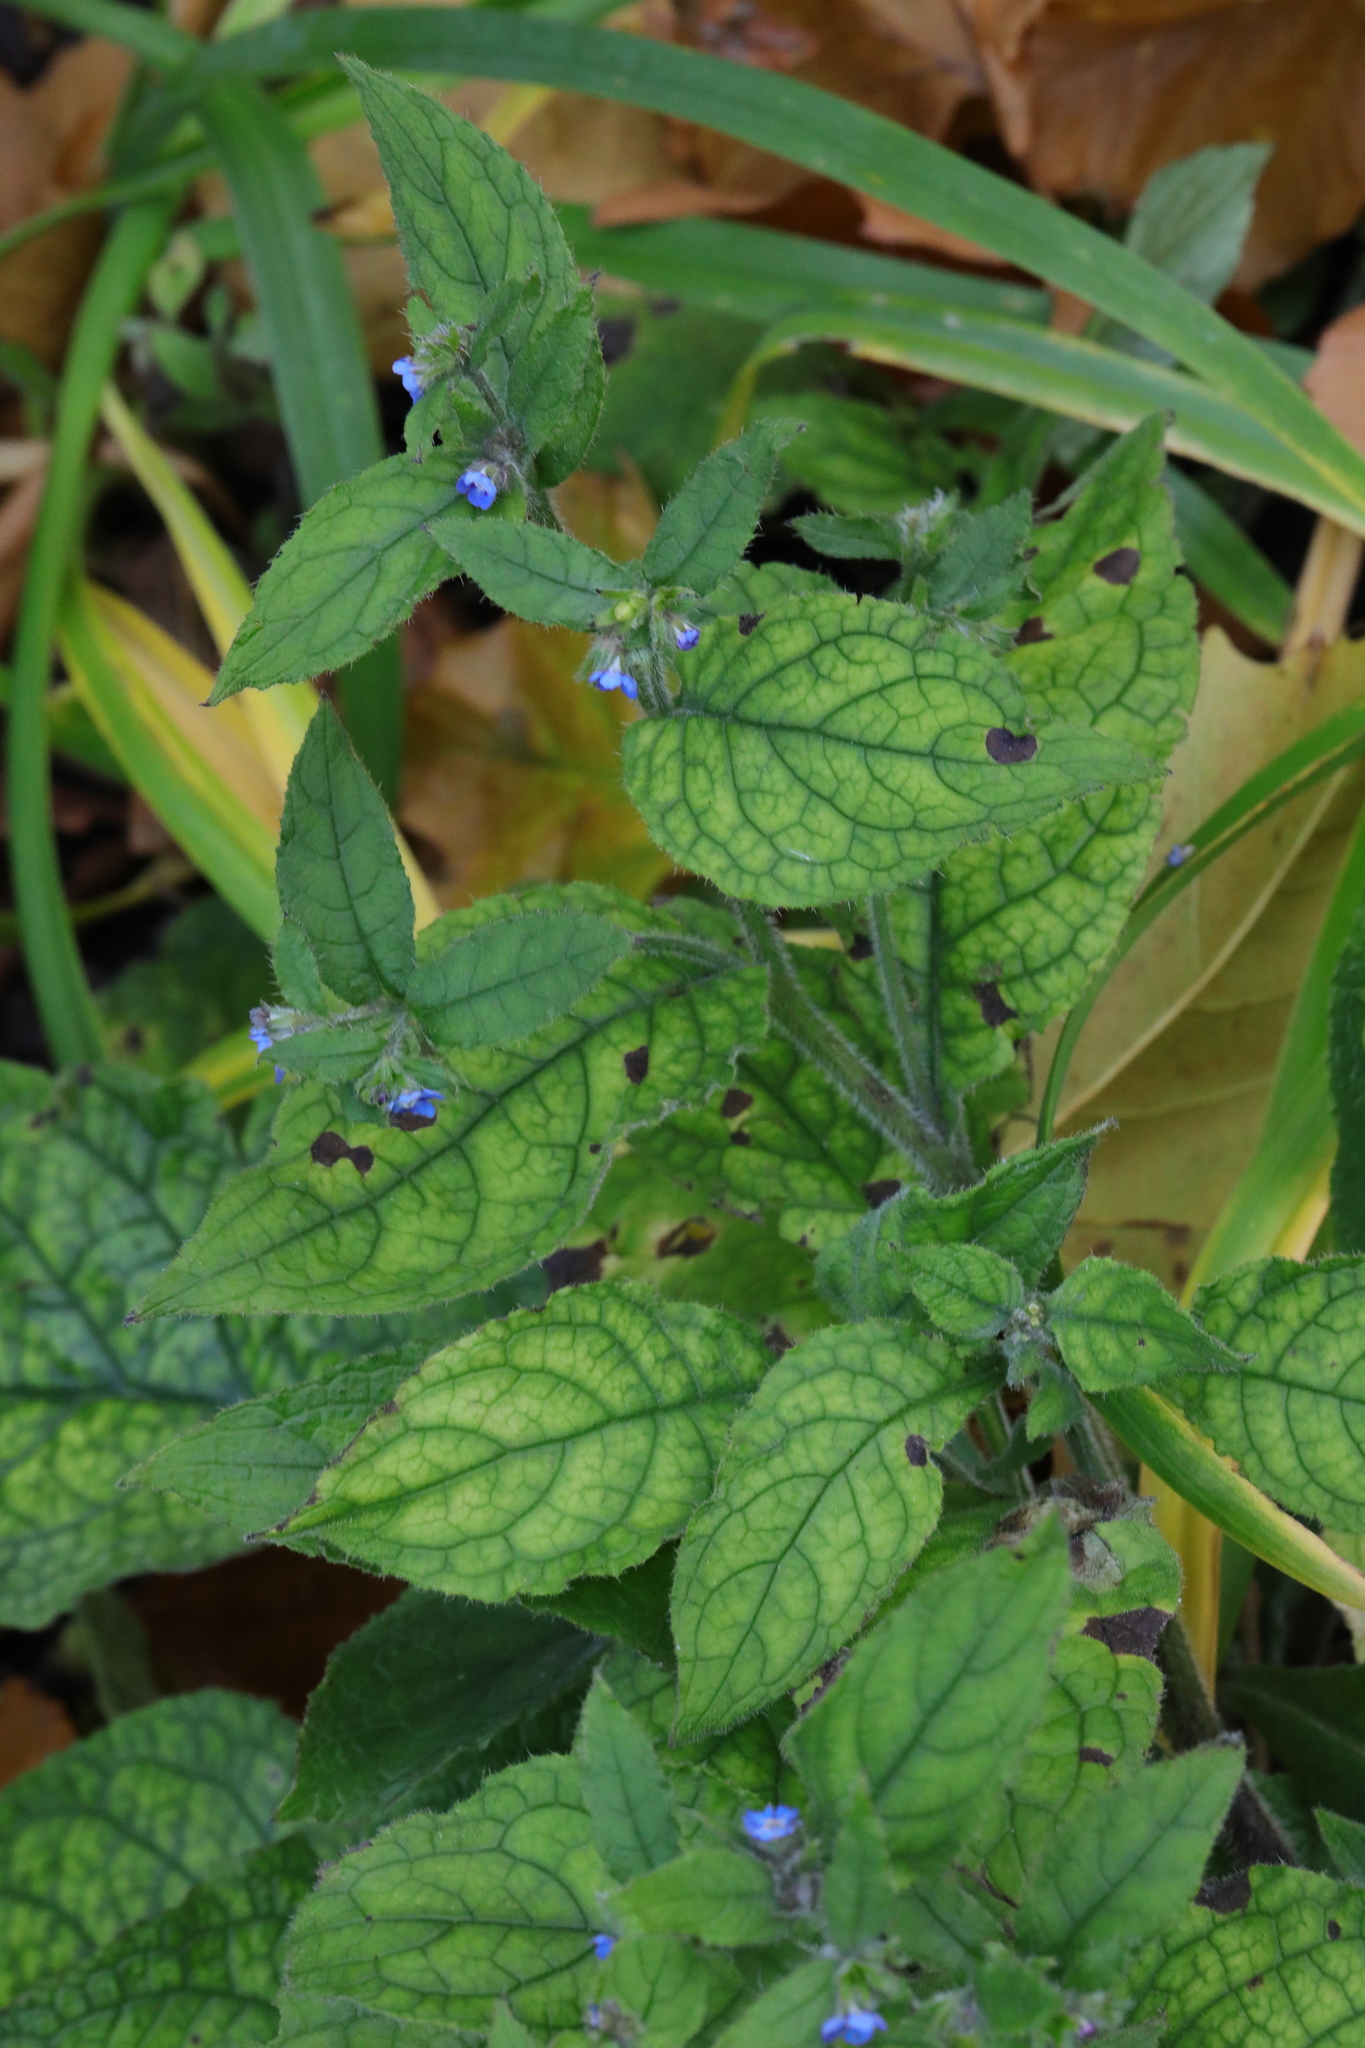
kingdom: Plantae
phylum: Tracheophyta
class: Magnoliopsida
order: Boraginales
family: Boraginaceae
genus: Pentaglottis
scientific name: Pentaglottis sempervirens
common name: Green alkanet
